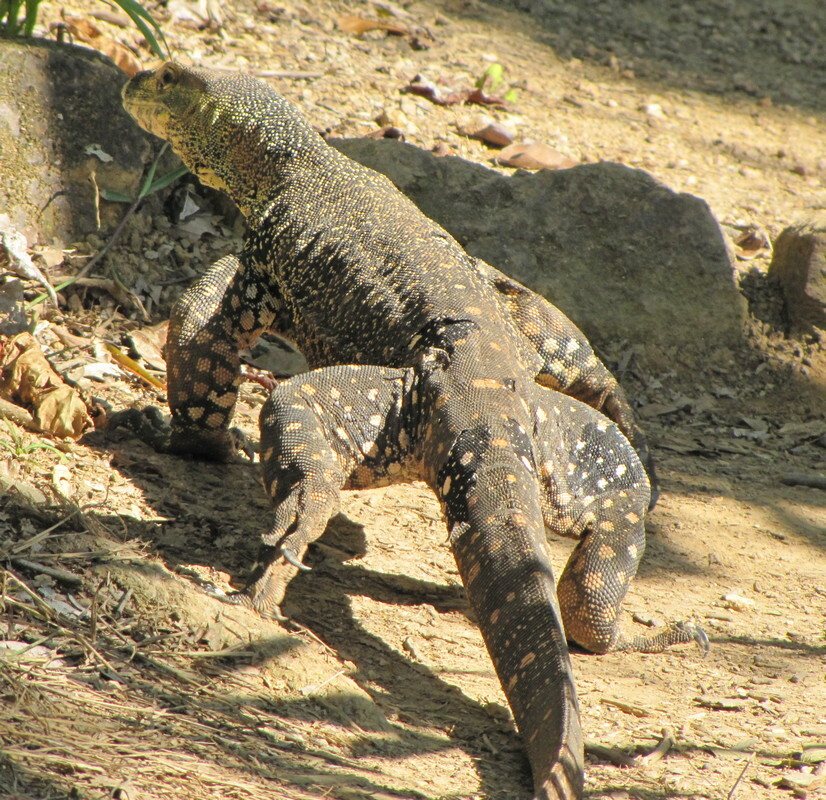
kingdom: Animalia
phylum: Chordata
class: Squamata
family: Varanidae
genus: Varanus
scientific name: Varanus varius
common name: Lace monitor
